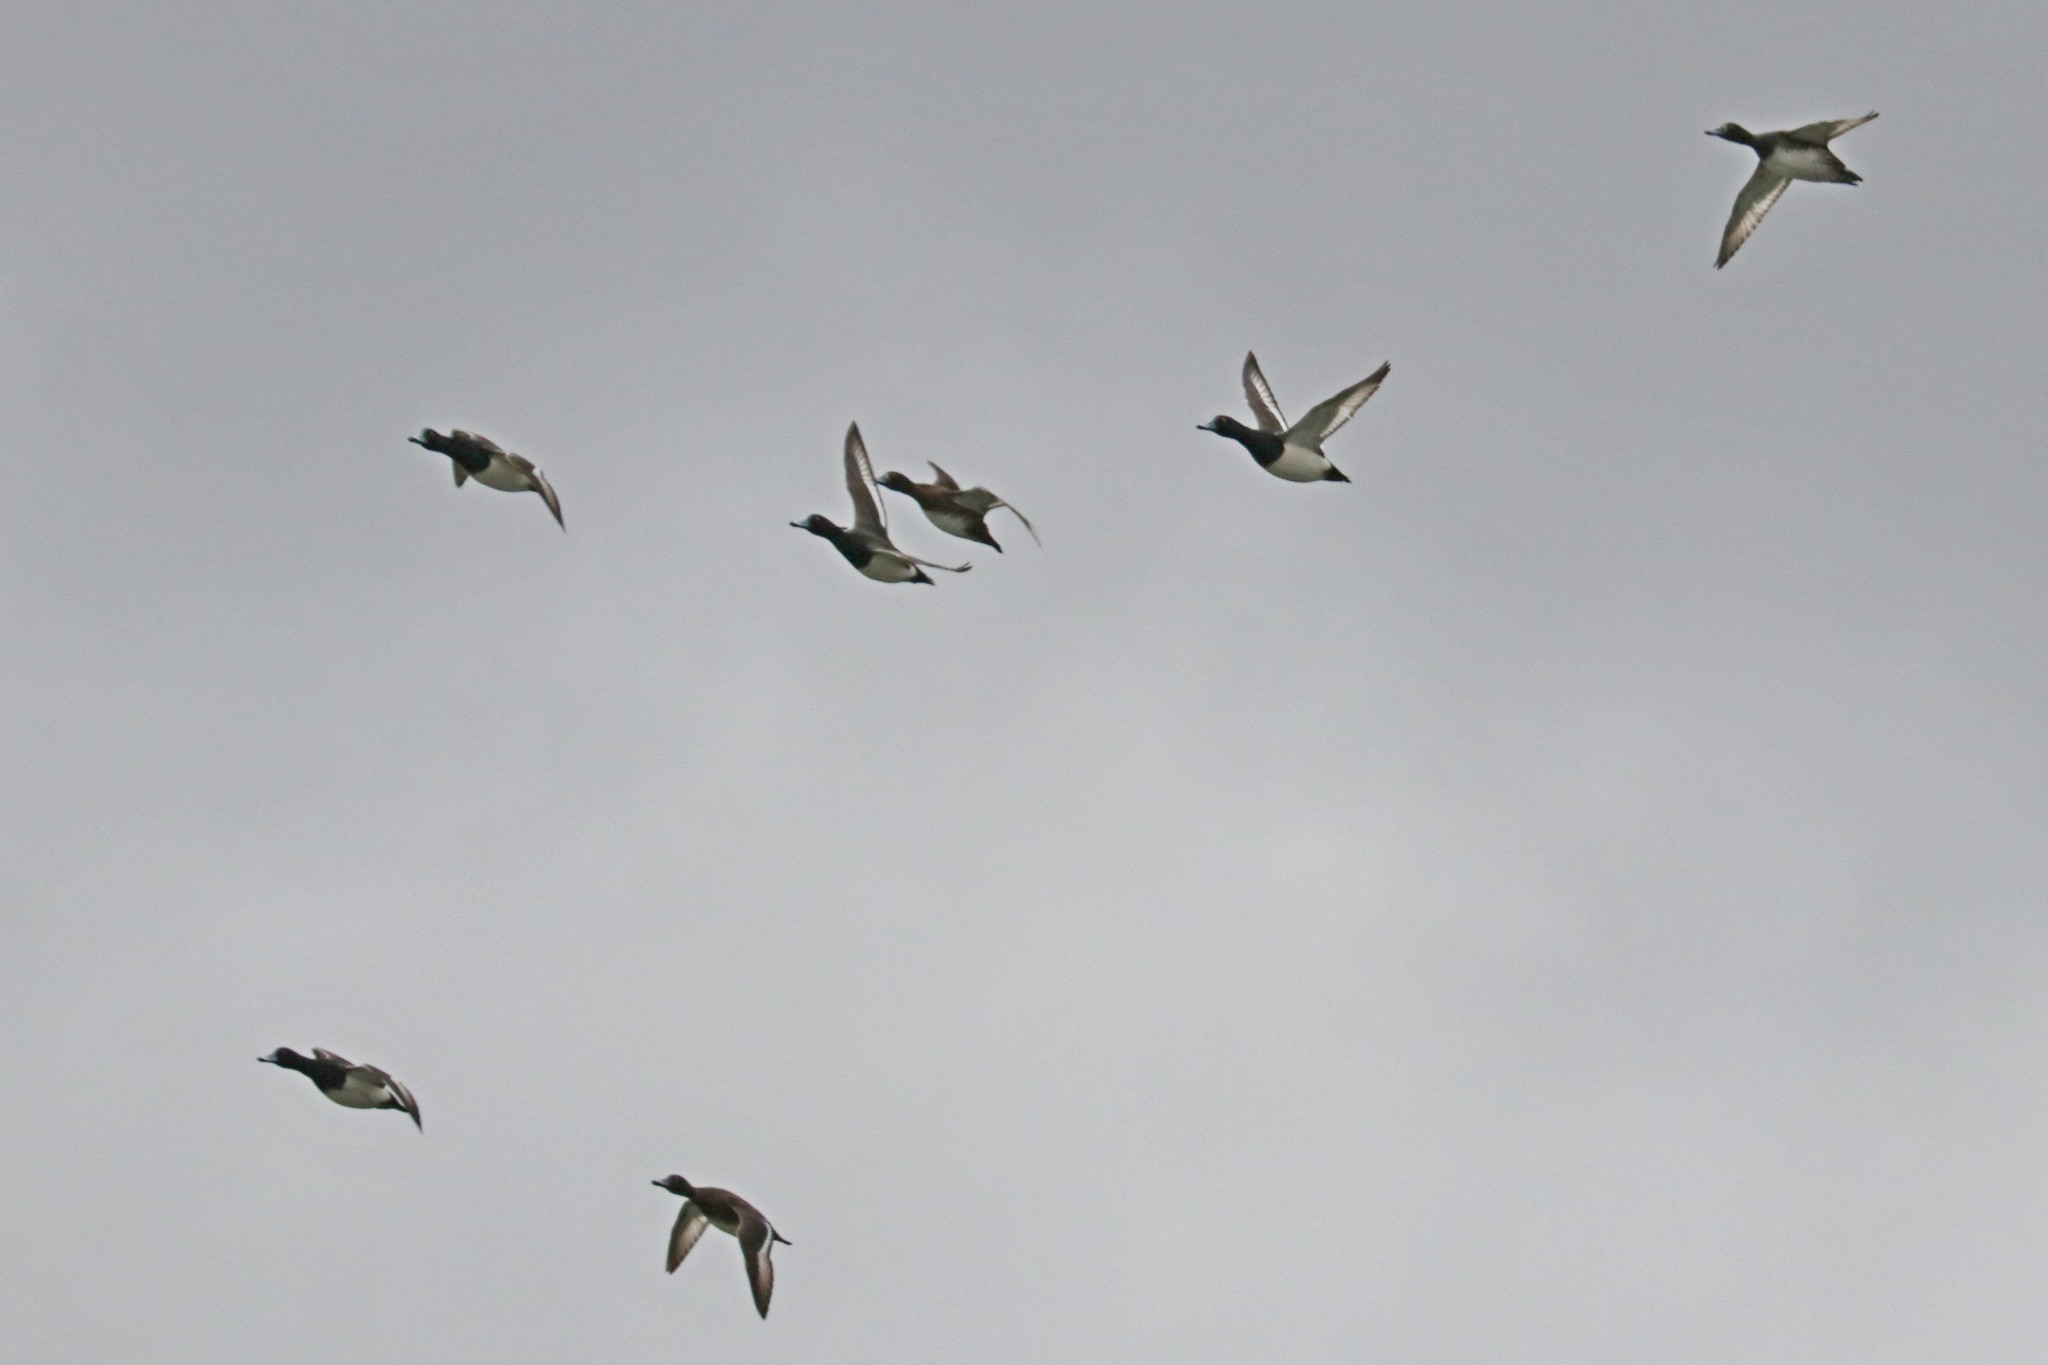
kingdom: Animalia
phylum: Chordata
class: Aves
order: Anseriformes
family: Anatidae
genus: Aythya
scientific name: Aythya fuligula
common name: Tufted duck
